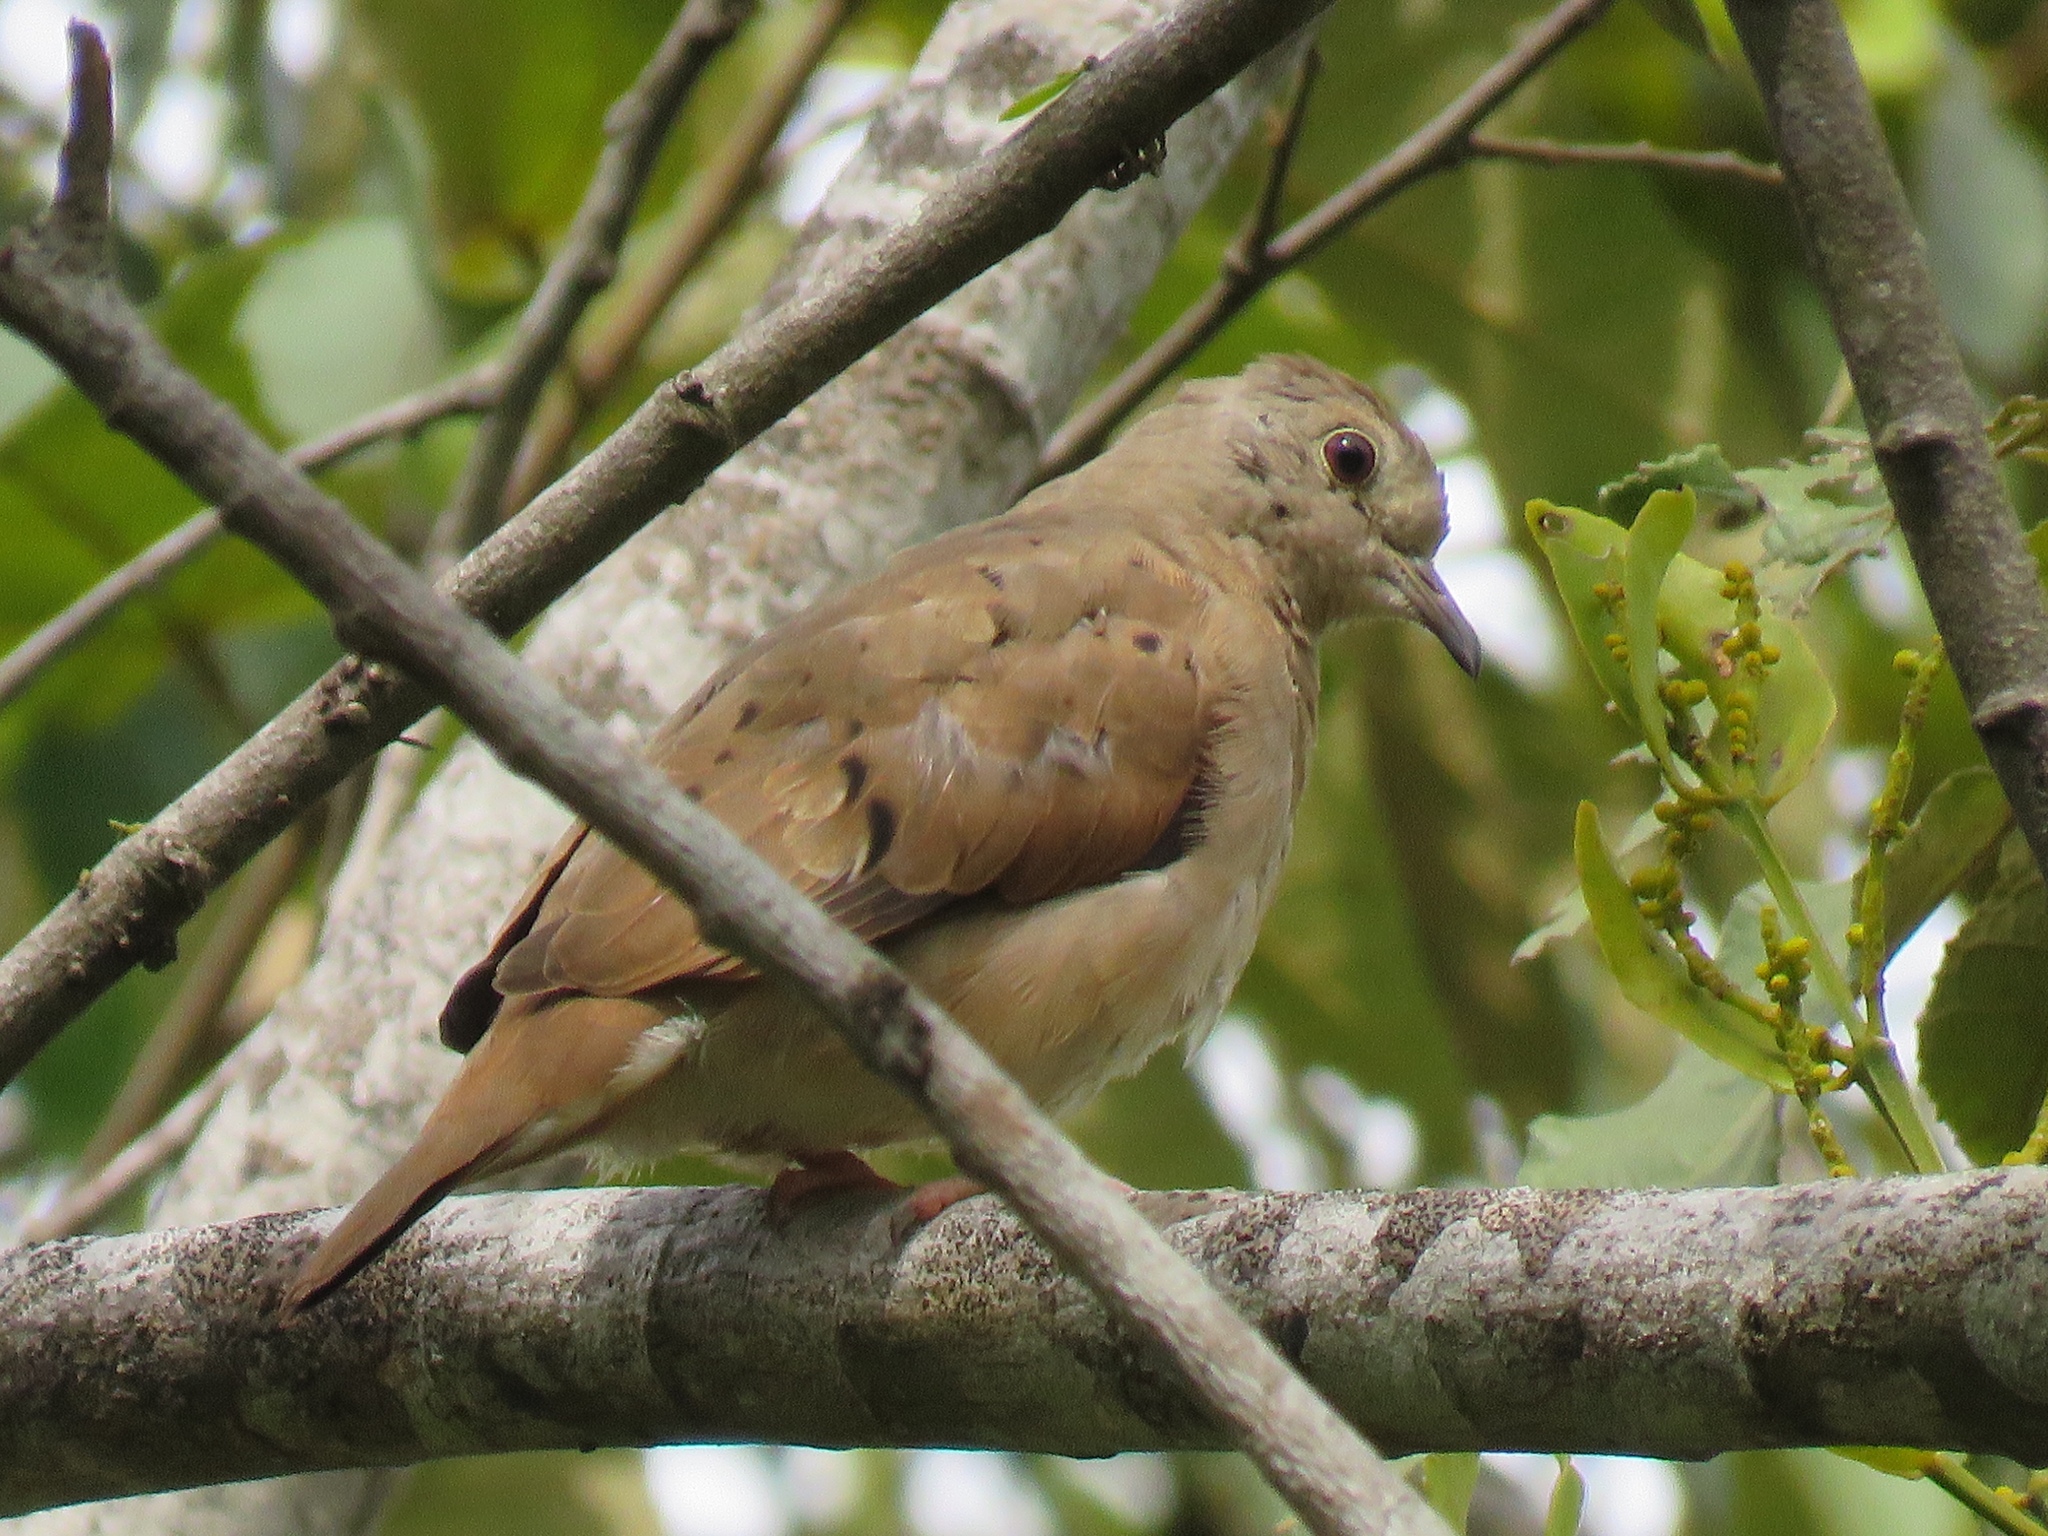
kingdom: Animalia
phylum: Chordata
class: Aves
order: Columbiformes
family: Columbidae
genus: Columbina
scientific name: Columbina talpacoti
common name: Ruddy ground dove
